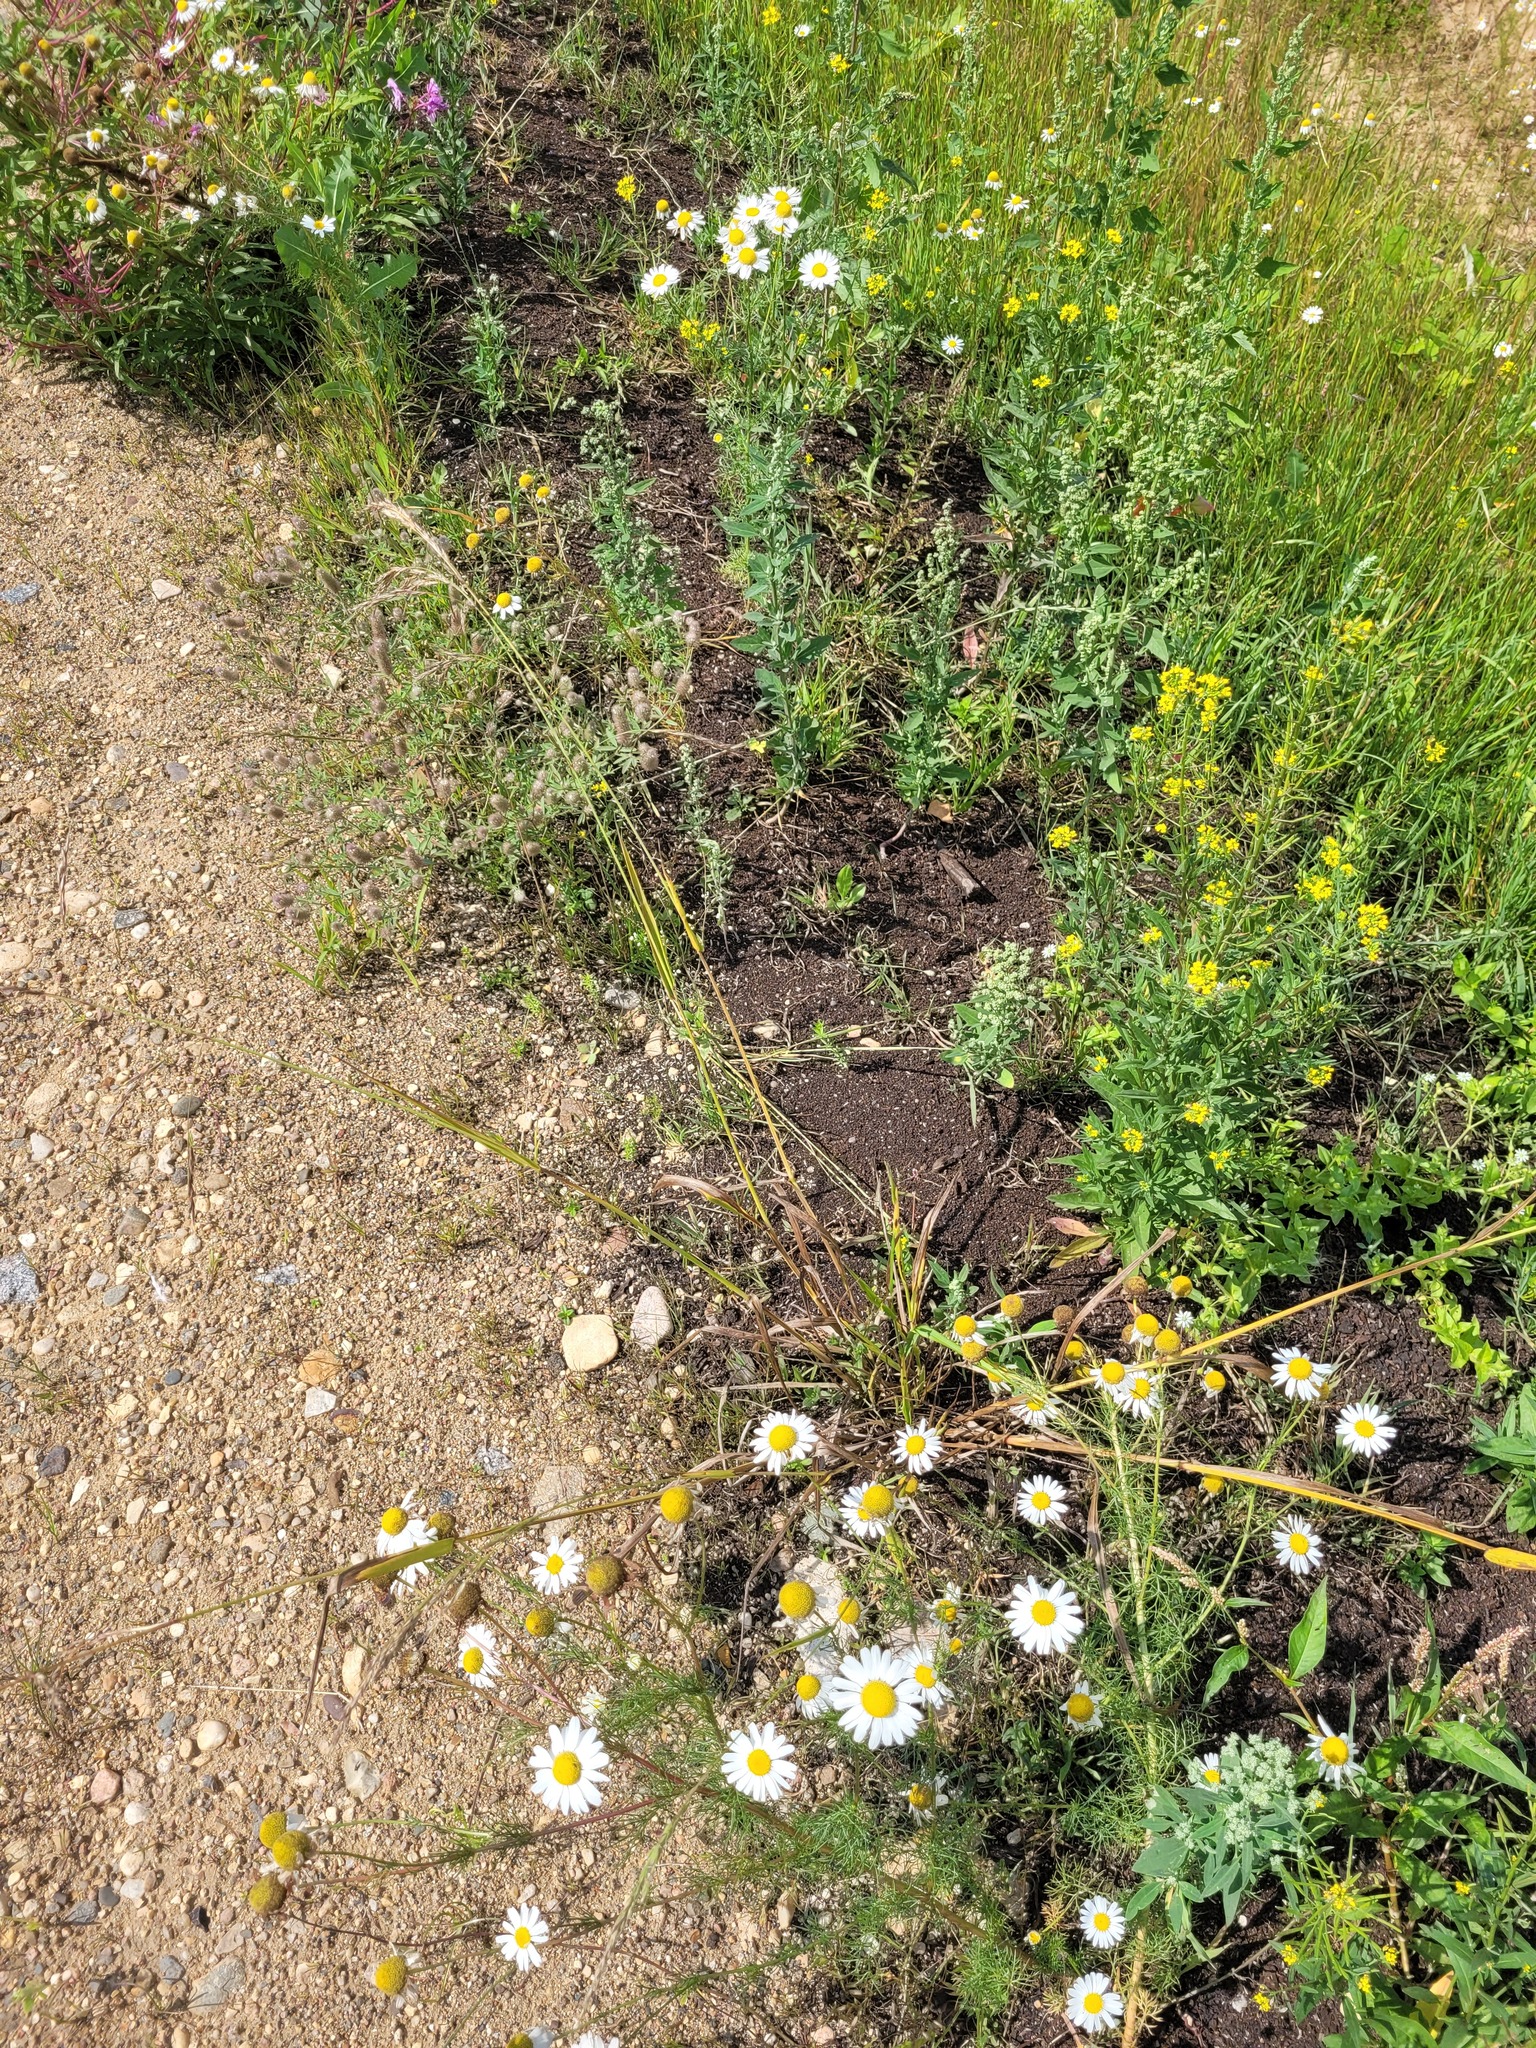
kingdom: Plantae
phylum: Tracheophyta
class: Liliopsida
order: Poales
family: Poaceae
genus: Lolium
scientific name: Lolium giganteum
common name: Giant fescue
